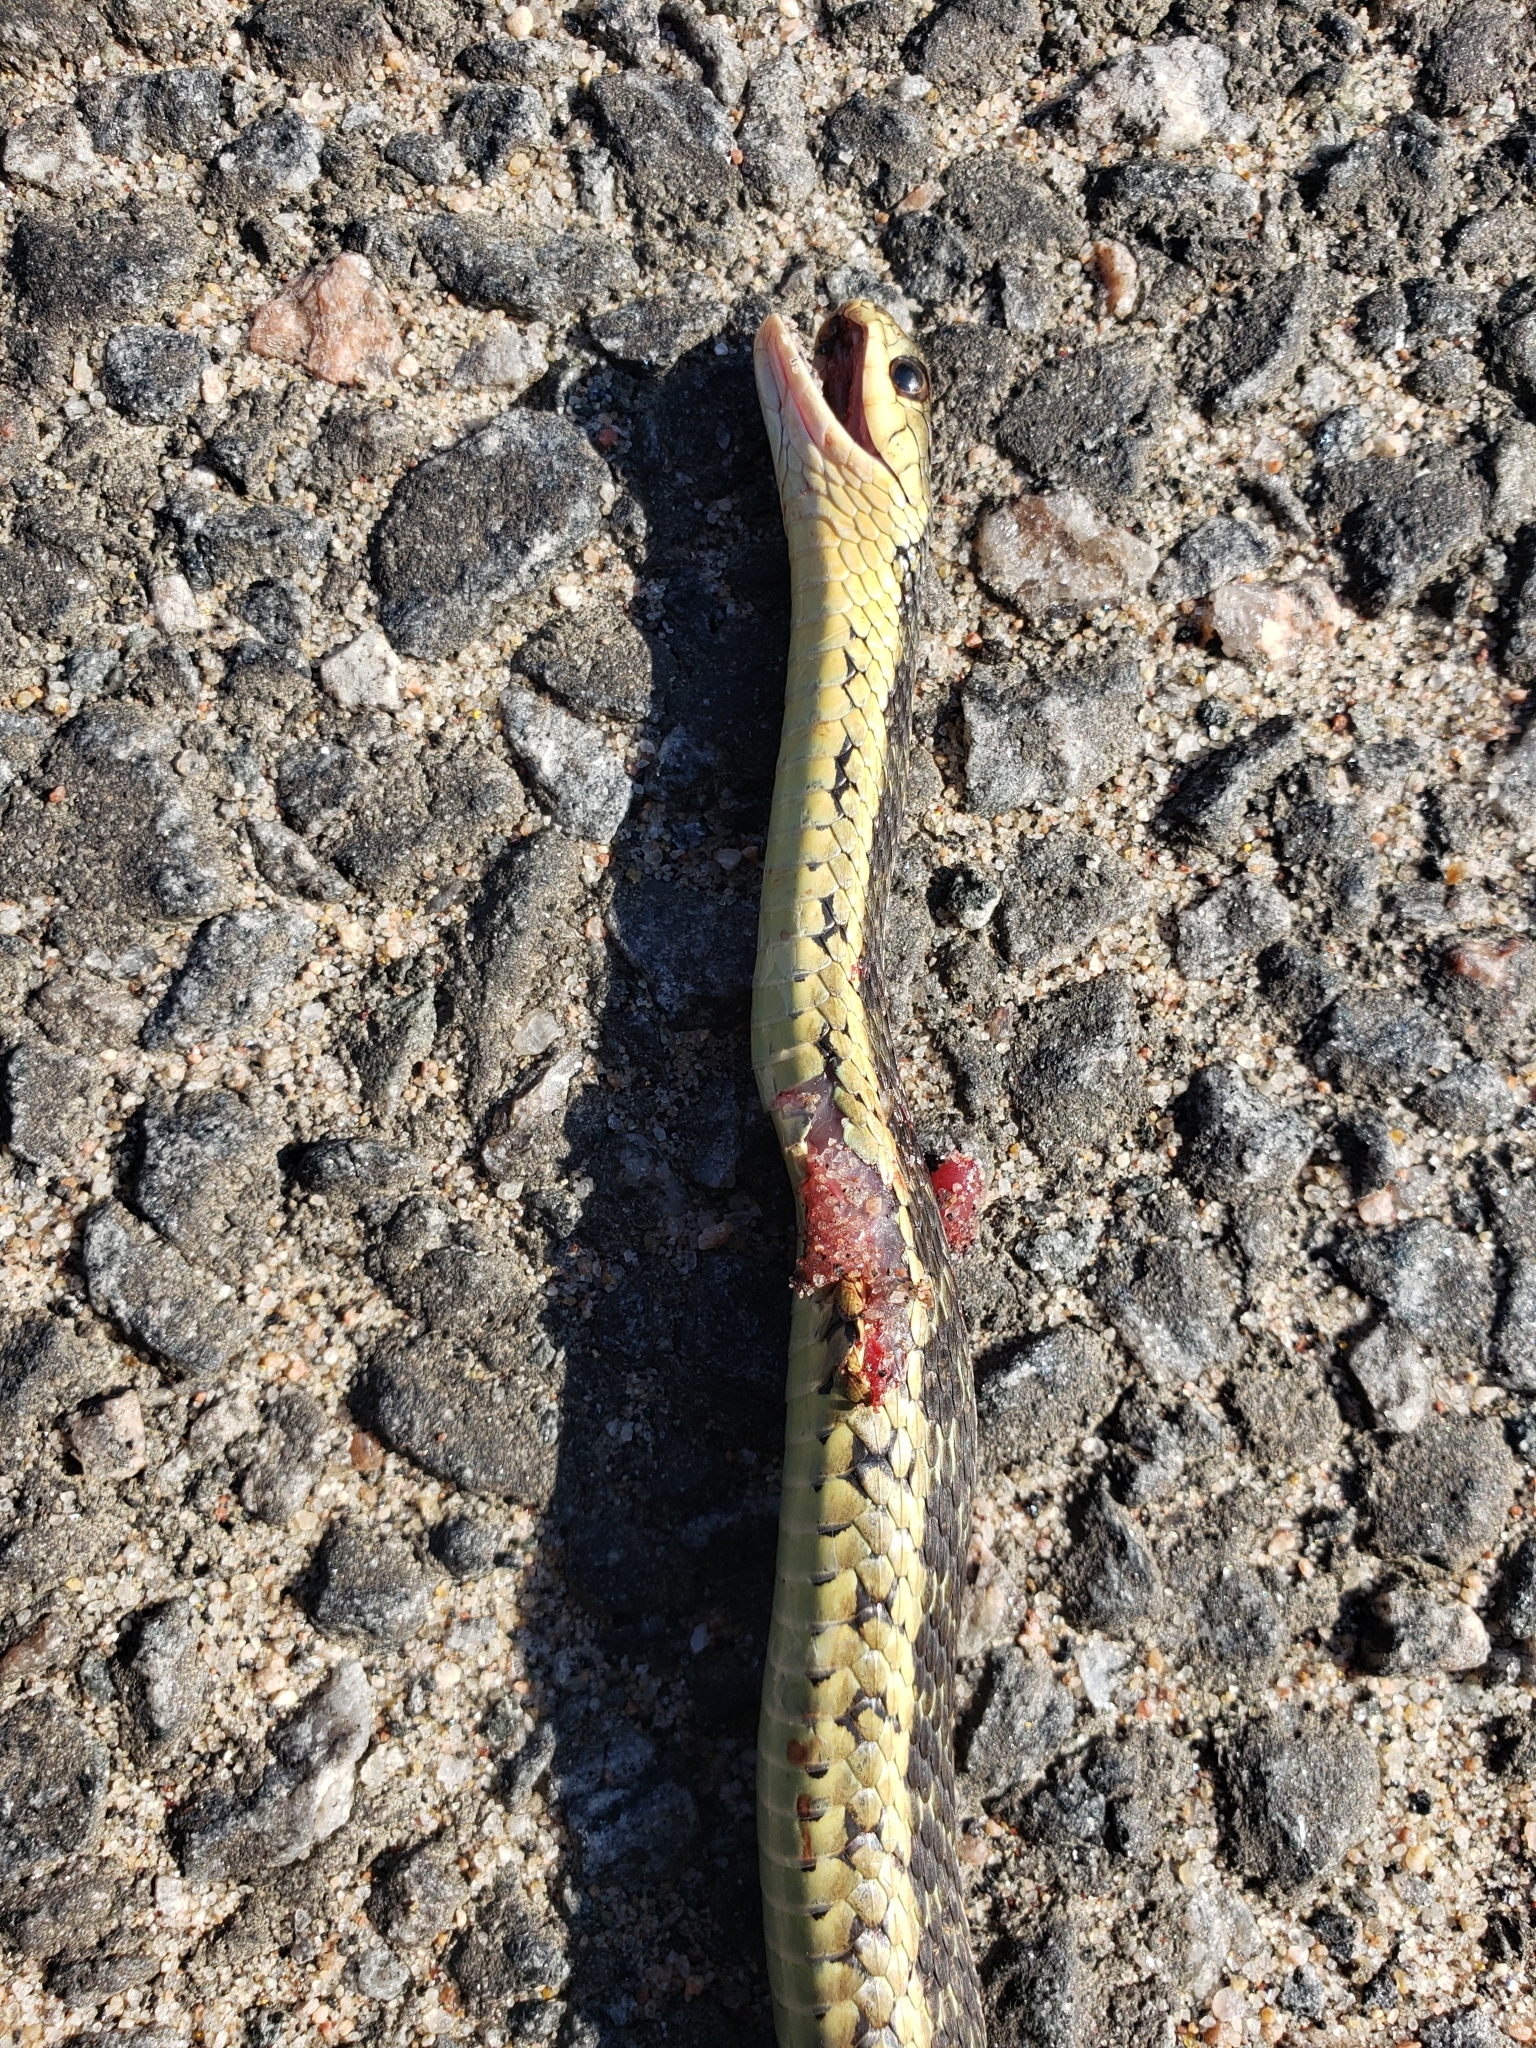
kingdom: Animalia
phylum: Chordata
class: Squamata
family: Colubridae
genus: Thamnophis
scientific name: Thamnophis sirtalis
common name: Common garter snake
